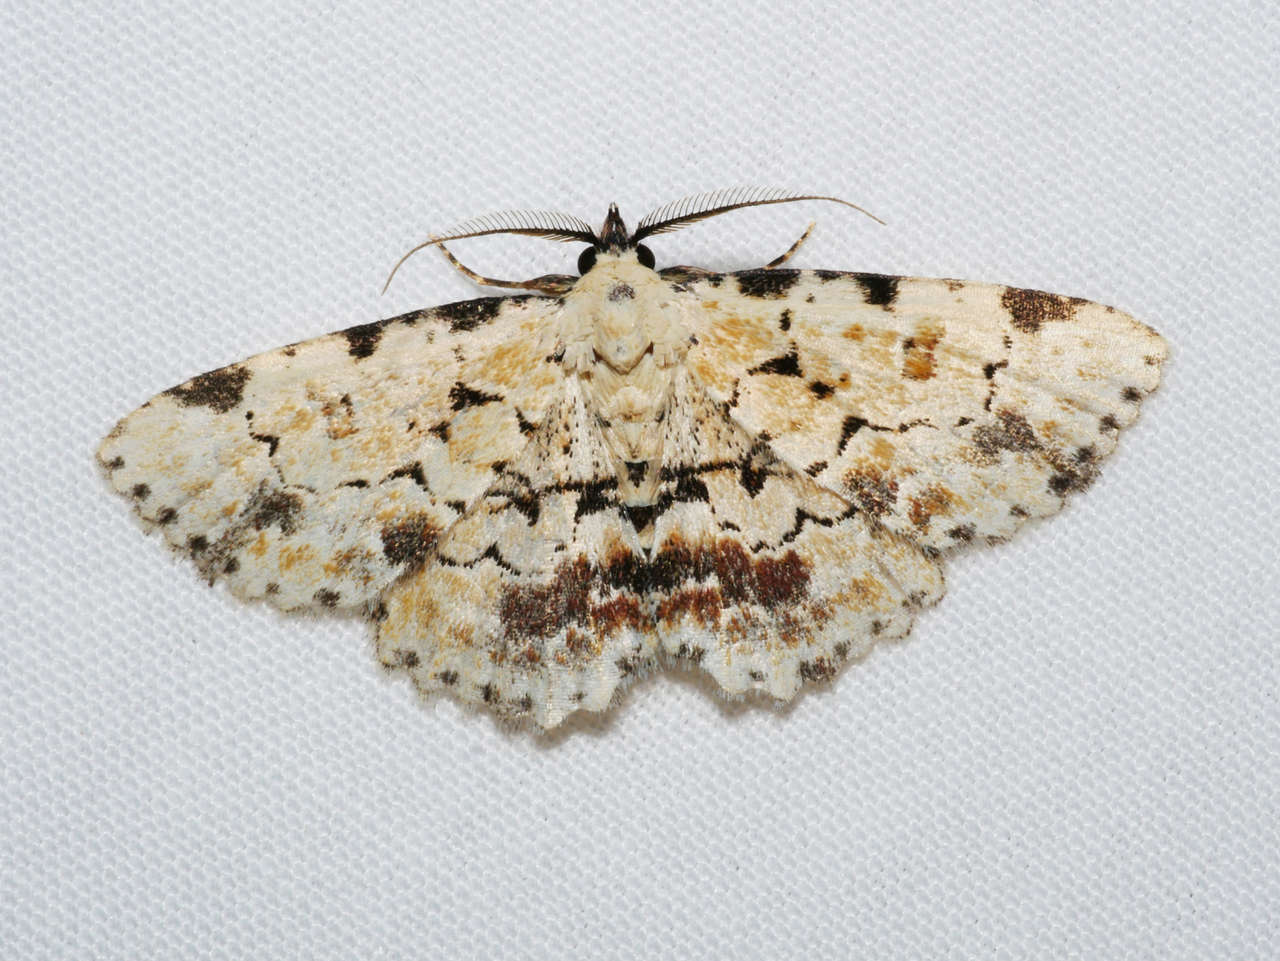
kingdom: Animalia
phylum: Arthropoda
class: Insecta
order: Lepidoptera
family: Erebidae
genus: Sandava
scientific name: Sandava scitisignata
